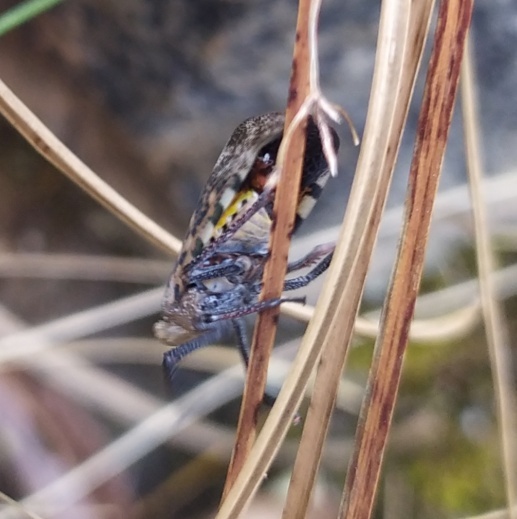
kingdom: Animalia
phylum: Arthropoda
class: Insecta
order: Hemiptera
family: Fulgoridae
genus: Hypselometopum
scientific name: Hypselometopum morosa
